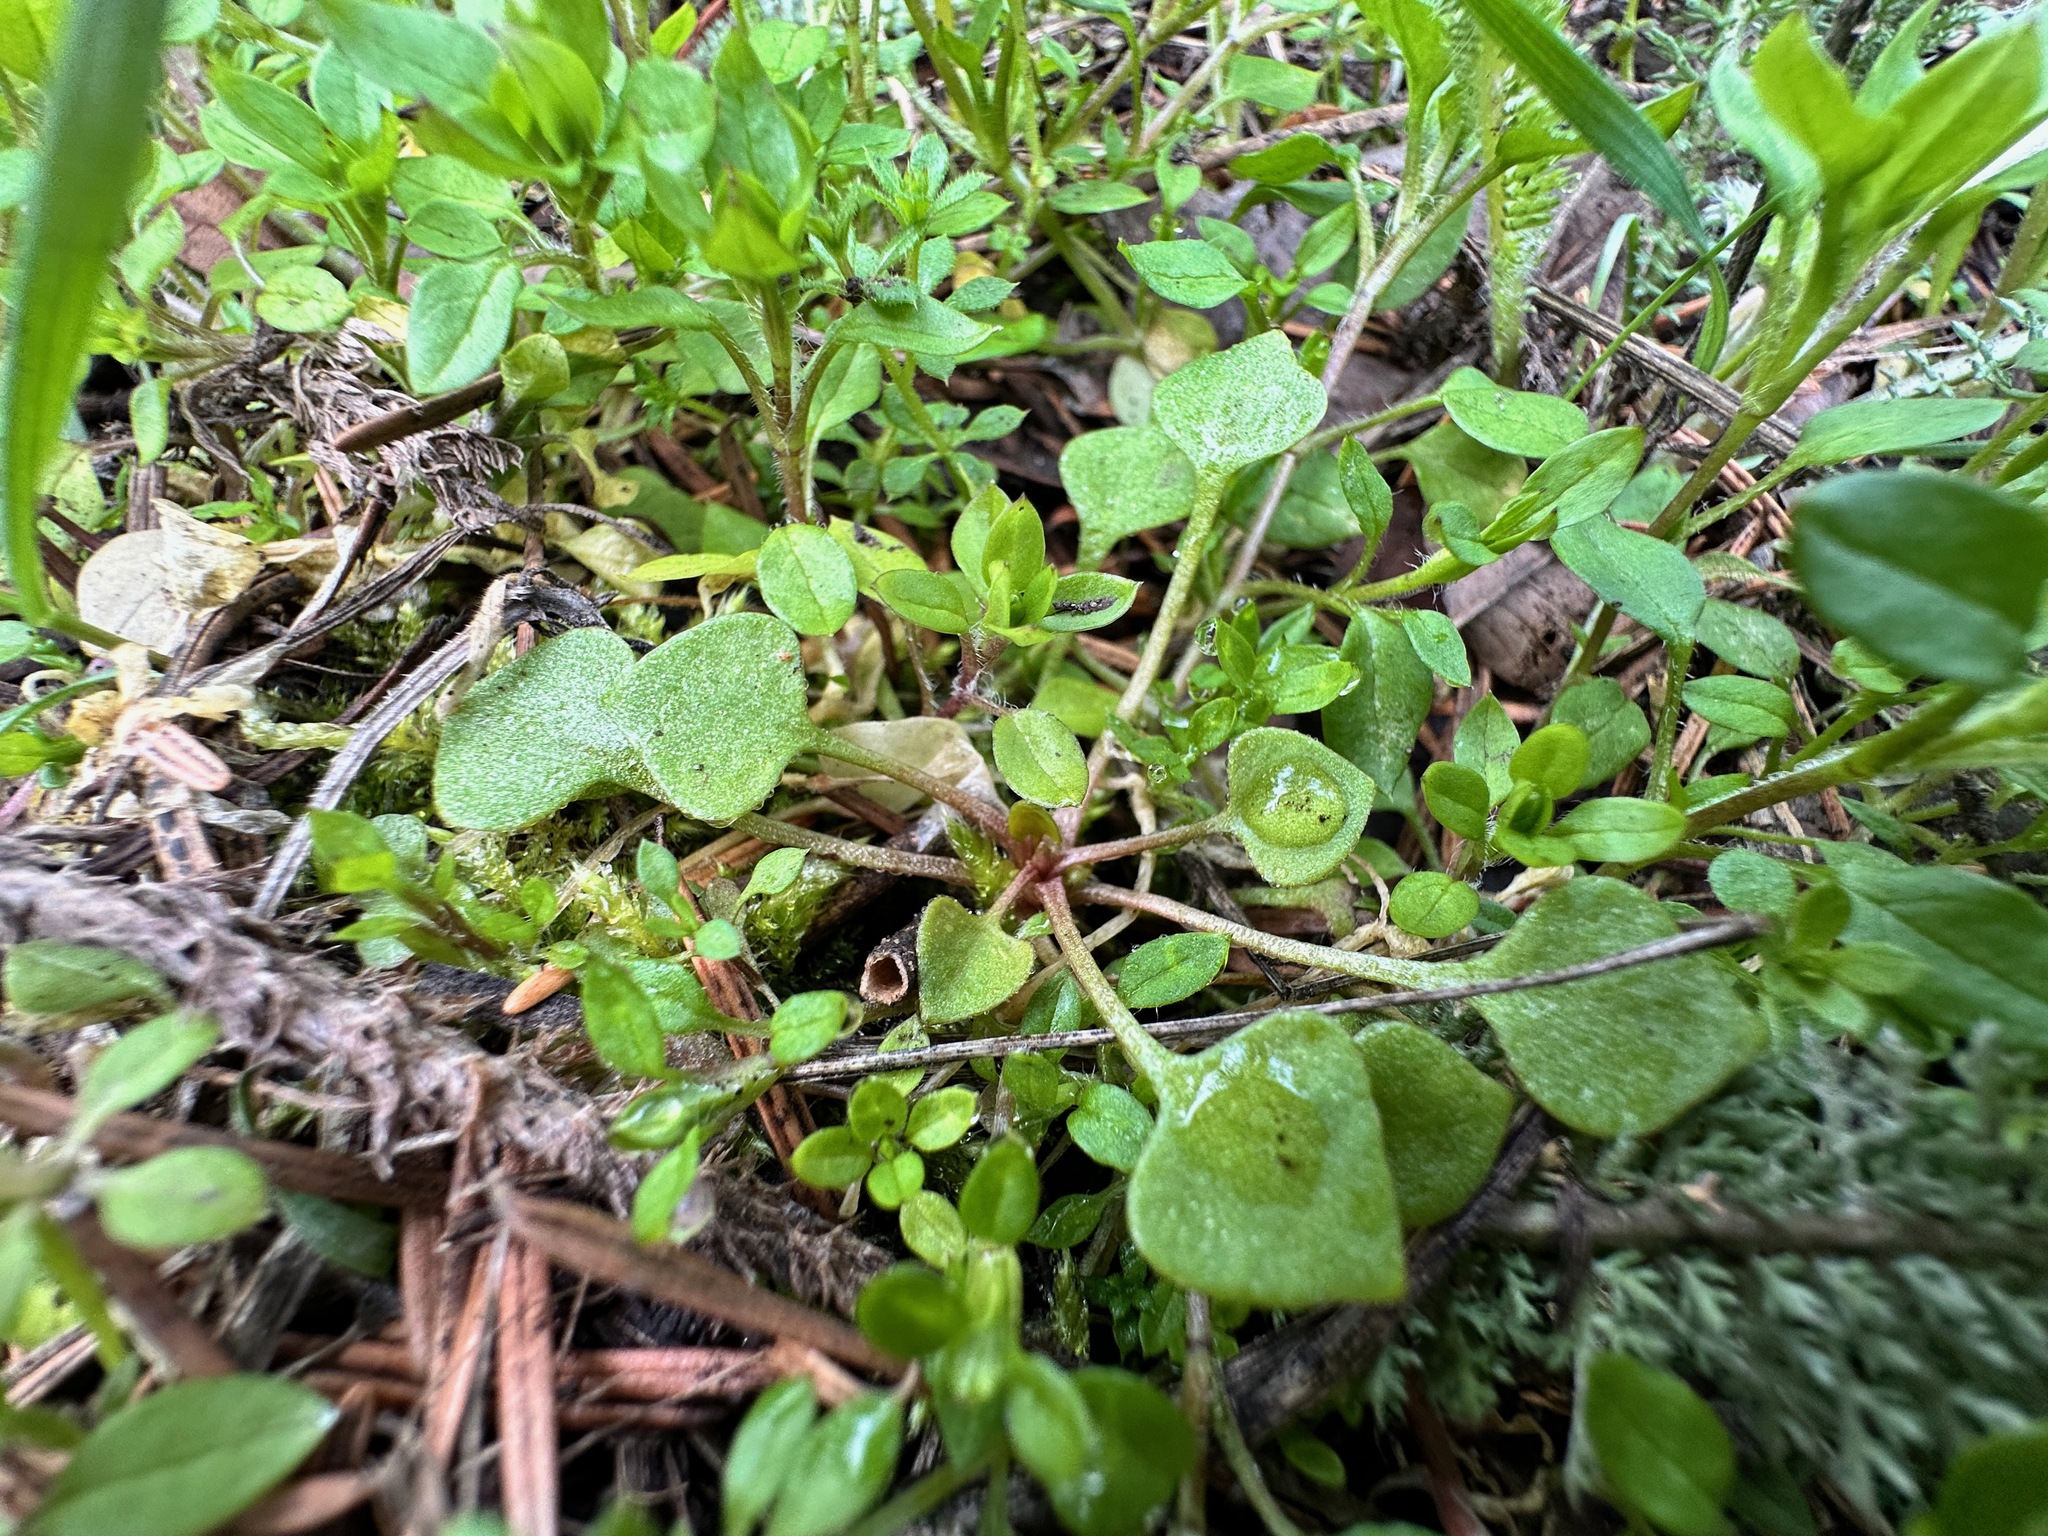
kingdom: Plantae
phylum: Tracheophyta
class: Magnoliopsida
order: Caryophyllales
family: Montiaceae
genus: Claytonia
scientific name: Claytonia rubra
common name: Erubescent miner's-lettuce
